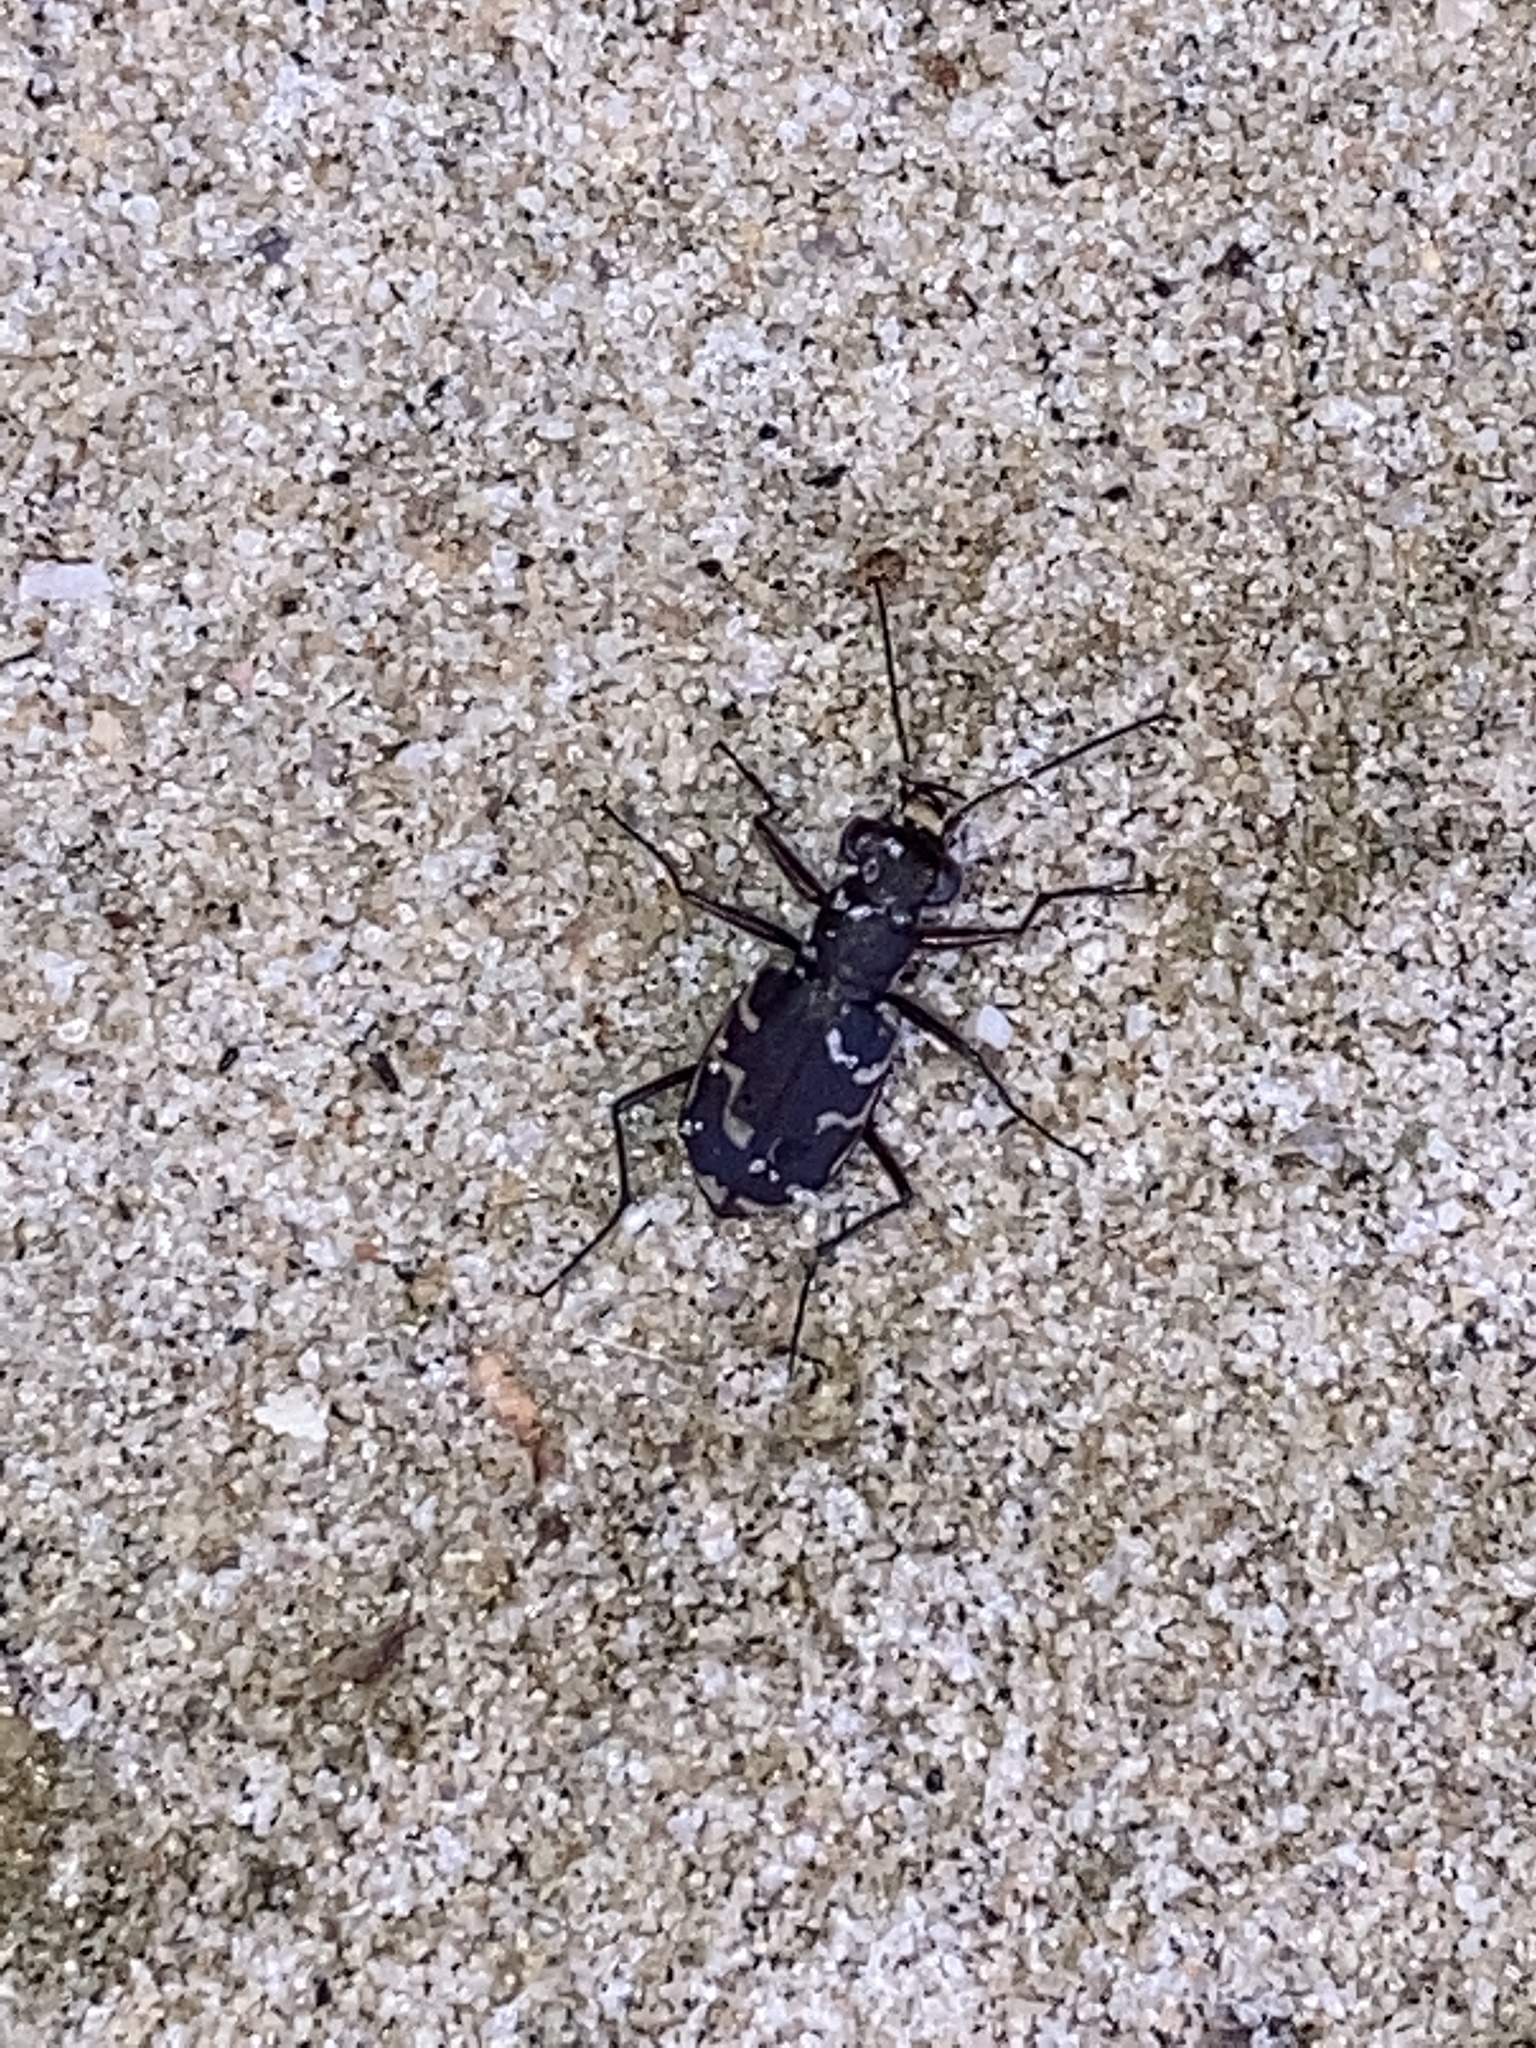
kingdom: Animalia
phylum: Arthropoda
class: Insecta
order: Coleoptera
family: Carabidae
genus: Cicindela
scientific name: Cicindela repanda
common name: Bronzed tiger beetle
